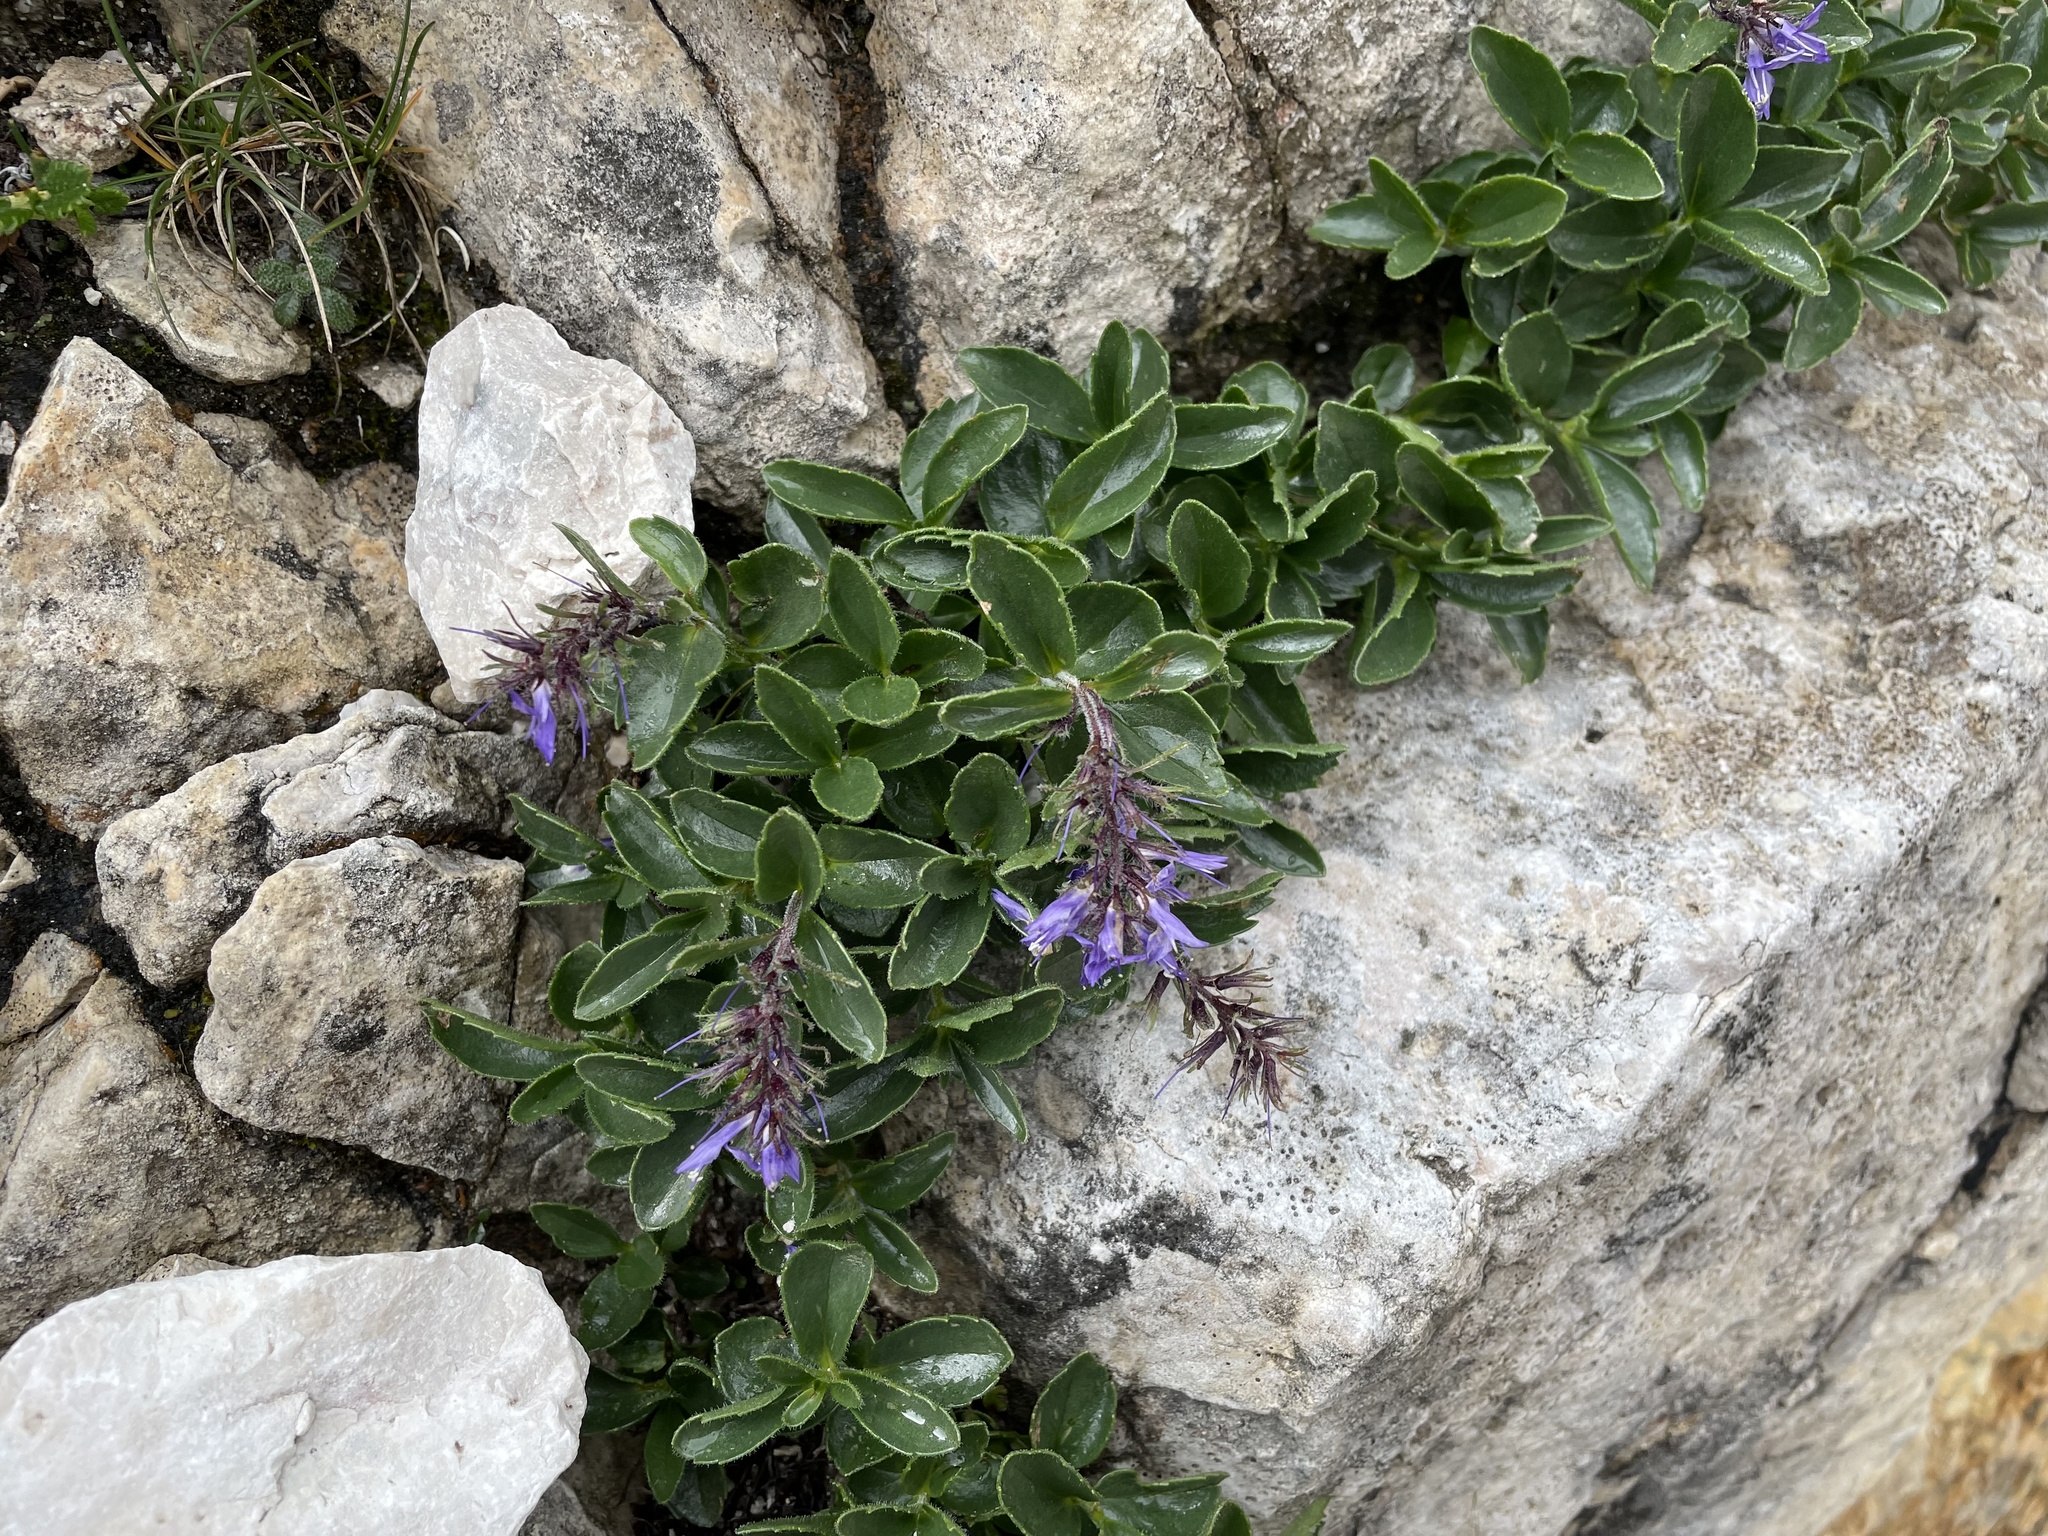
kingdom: Plantae
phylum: Tracheophyta
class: Magnoliopsida
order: Lamiales
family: Plantaginaceae
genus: Paederota
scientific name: Paederota bonarota
